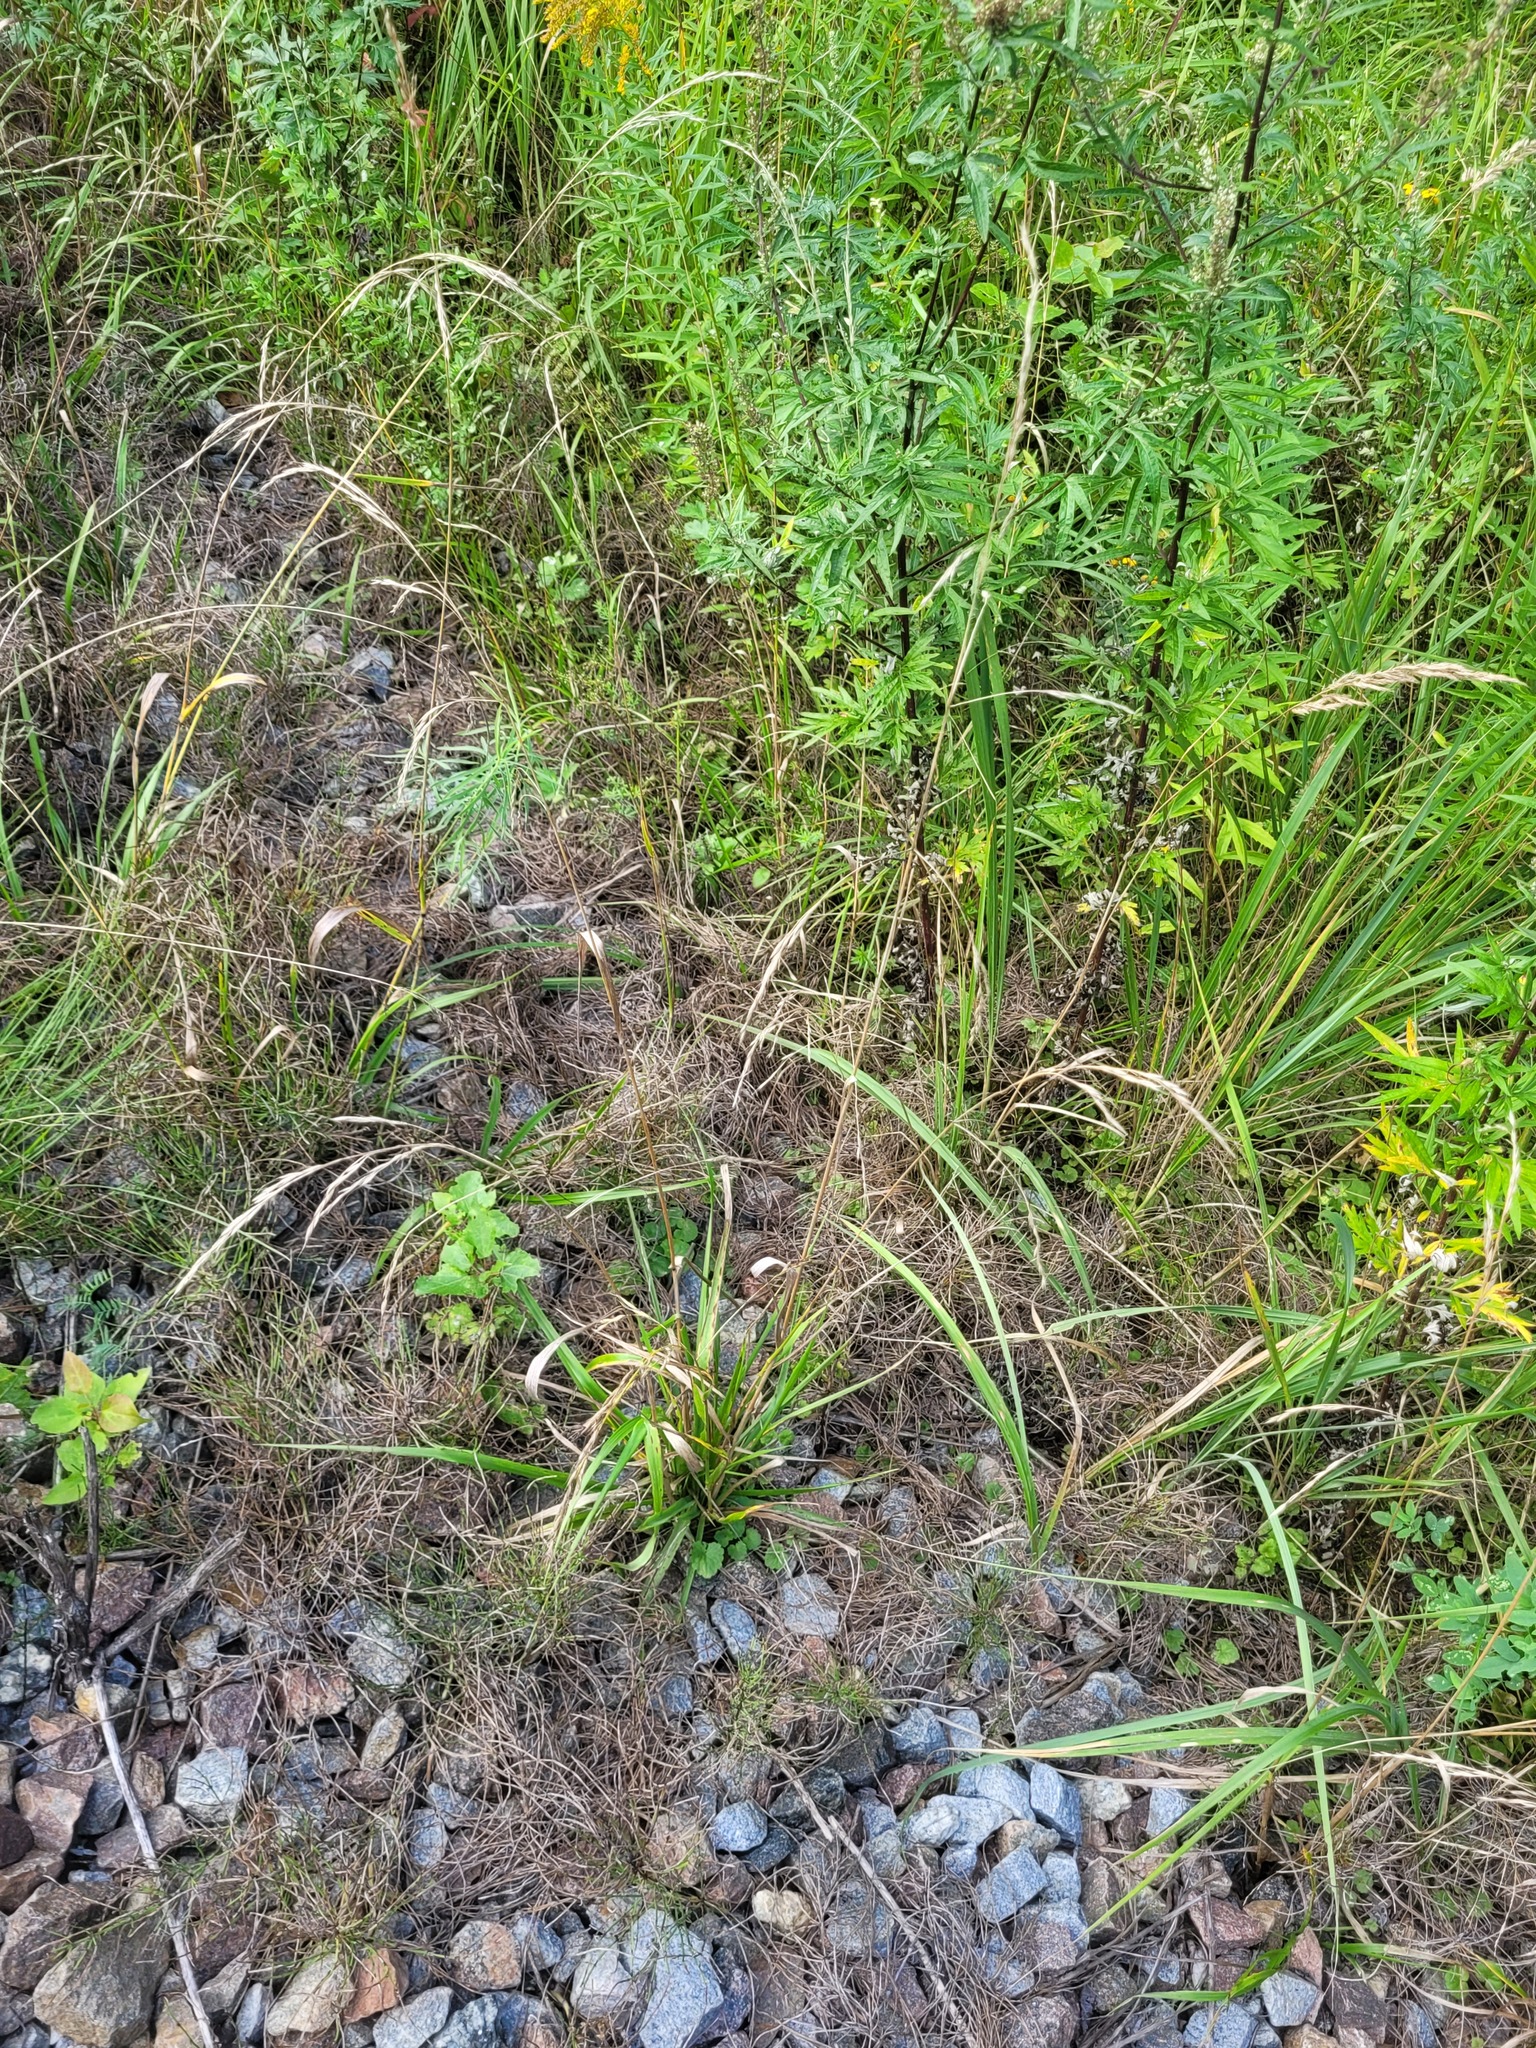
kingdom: Plantae
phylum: Tracheophyta
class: Liliopsida
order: Poales
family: Poaceae
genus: Lolium
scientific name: Lolium giganteum
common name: Giant fescue
